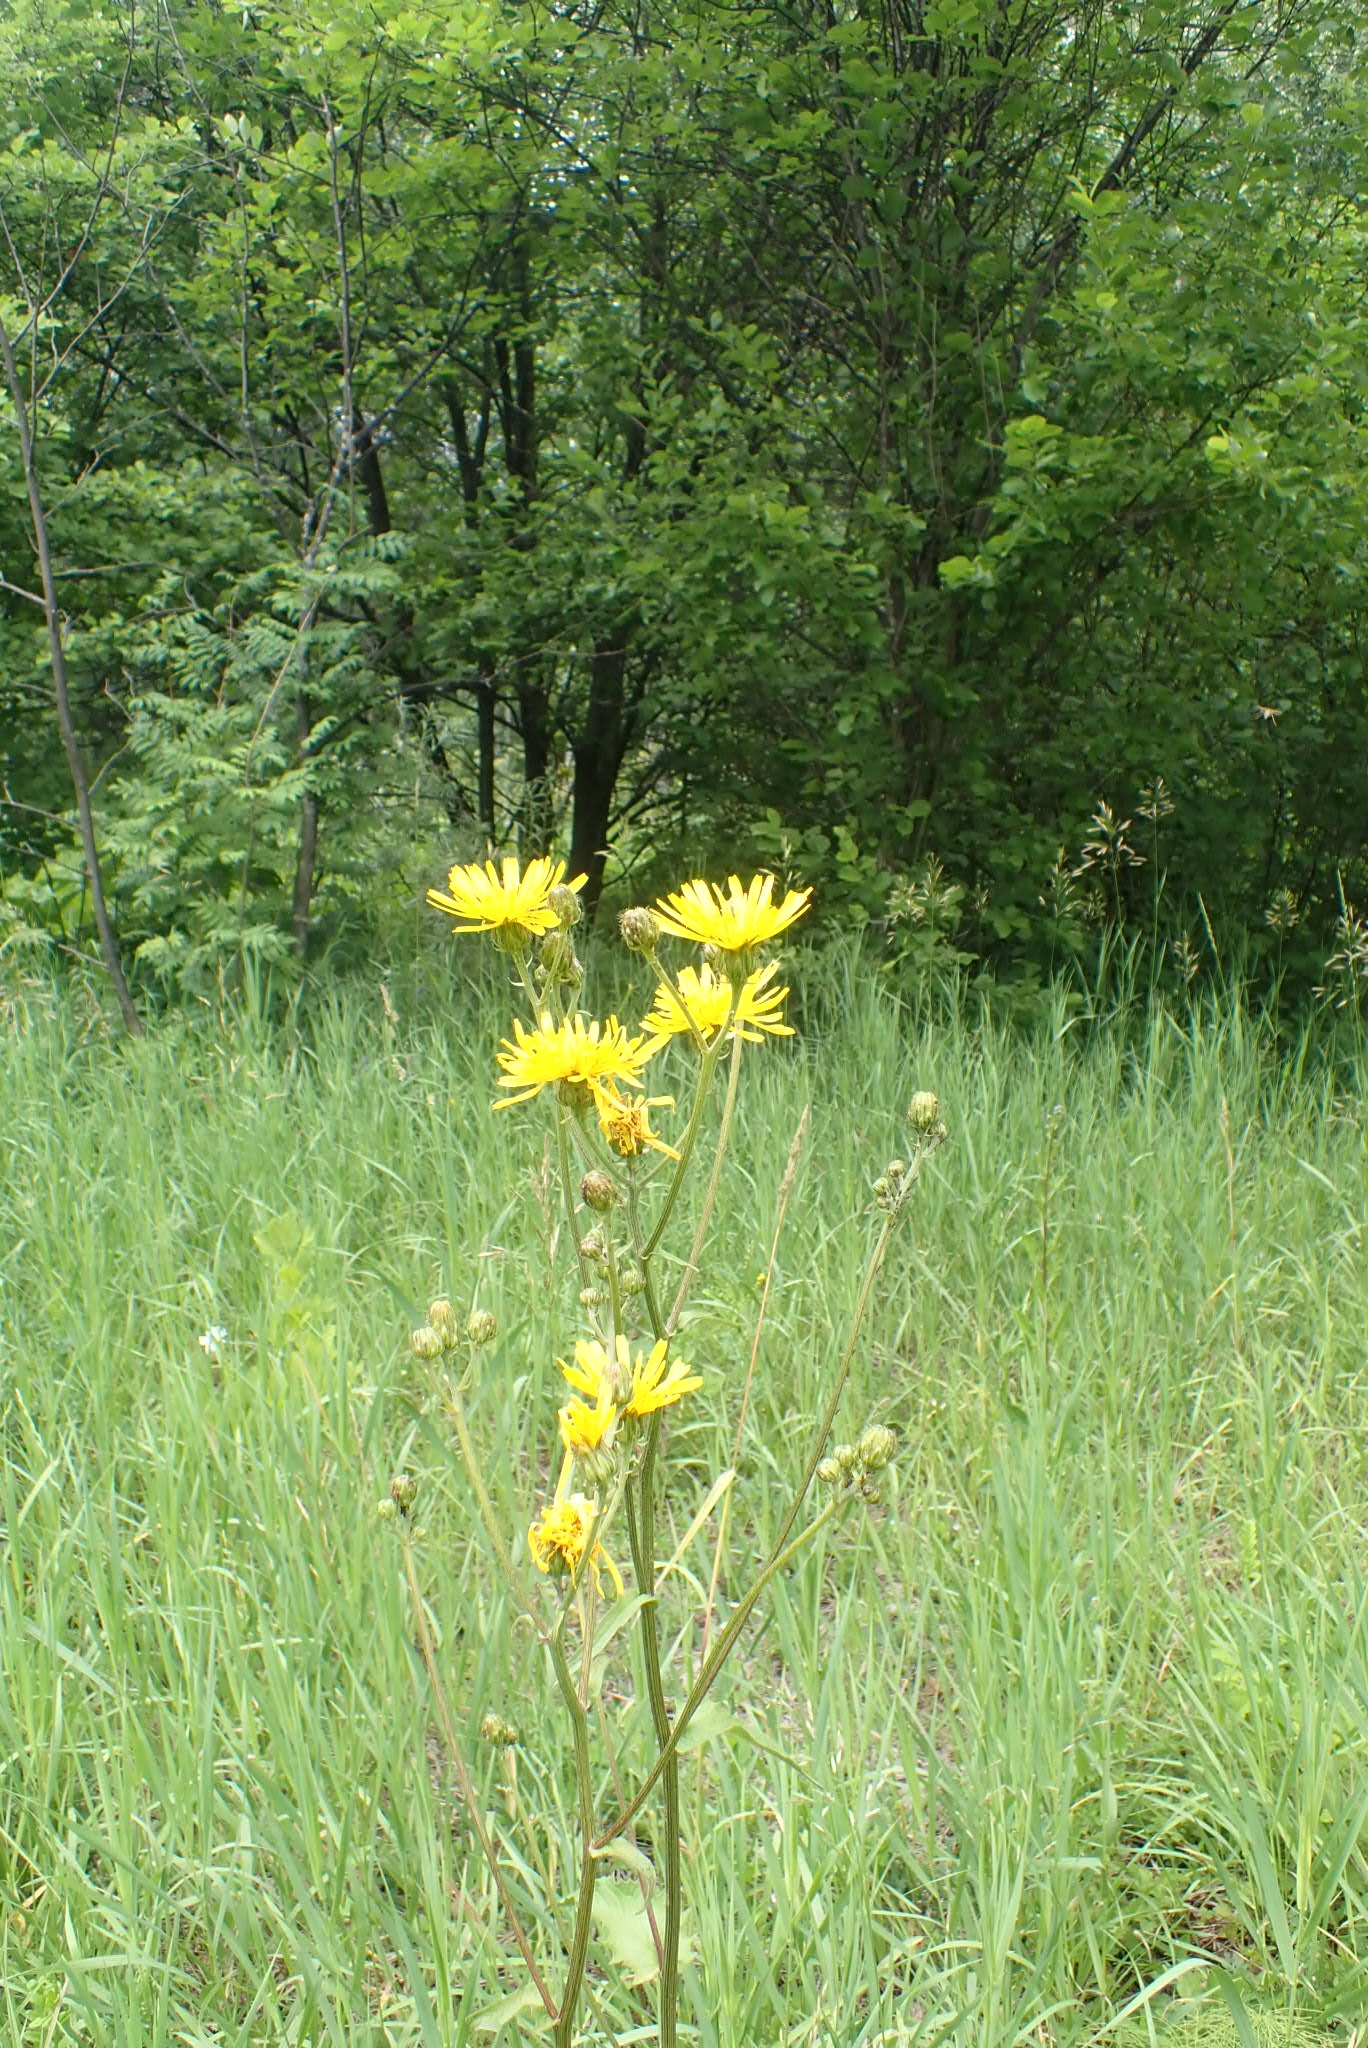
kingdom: Plantae
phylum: Tracheophyta
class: Magnoliopsida
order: Asterales
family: Asteraceae
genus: Crepis
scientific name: Crepis sibirica
